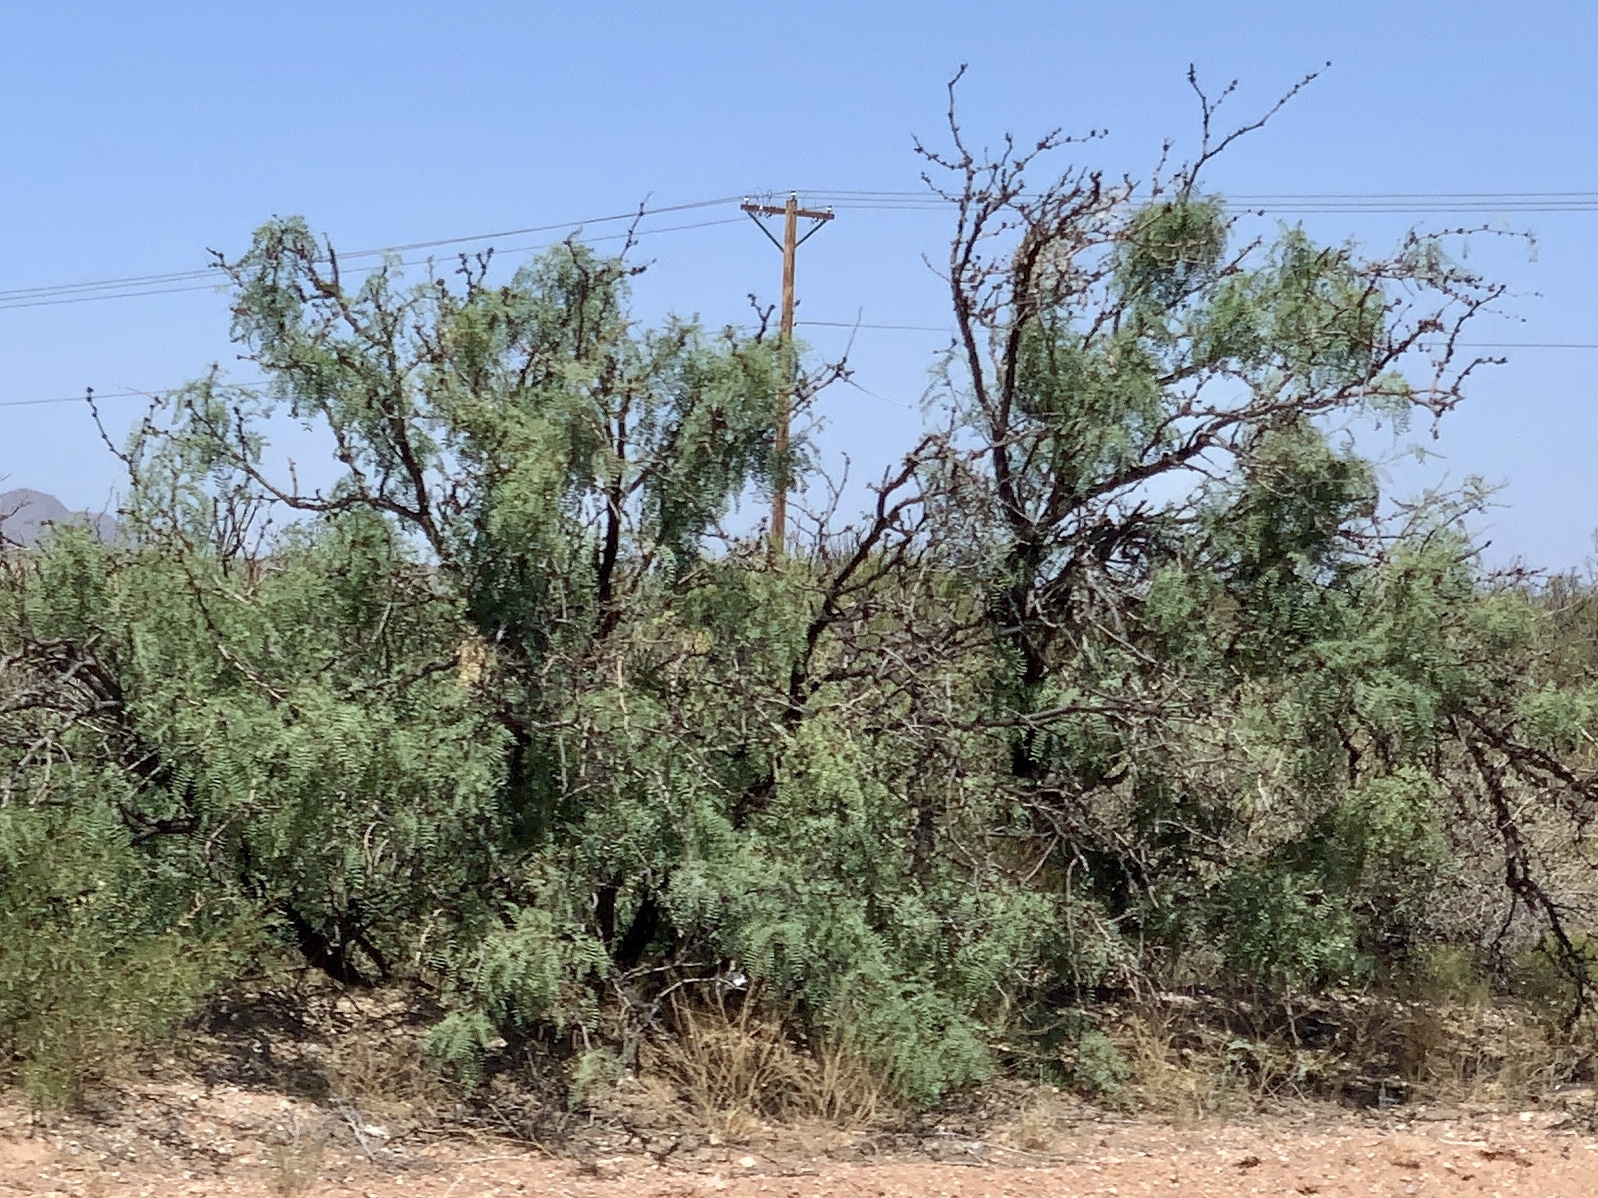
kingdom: Plantae
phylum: Tracheophyta
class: Magnoliopsida
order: Fabales
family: Fabaceae
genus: Prosopis
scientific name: Prosopis glandulosa
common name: Honey mesquite
